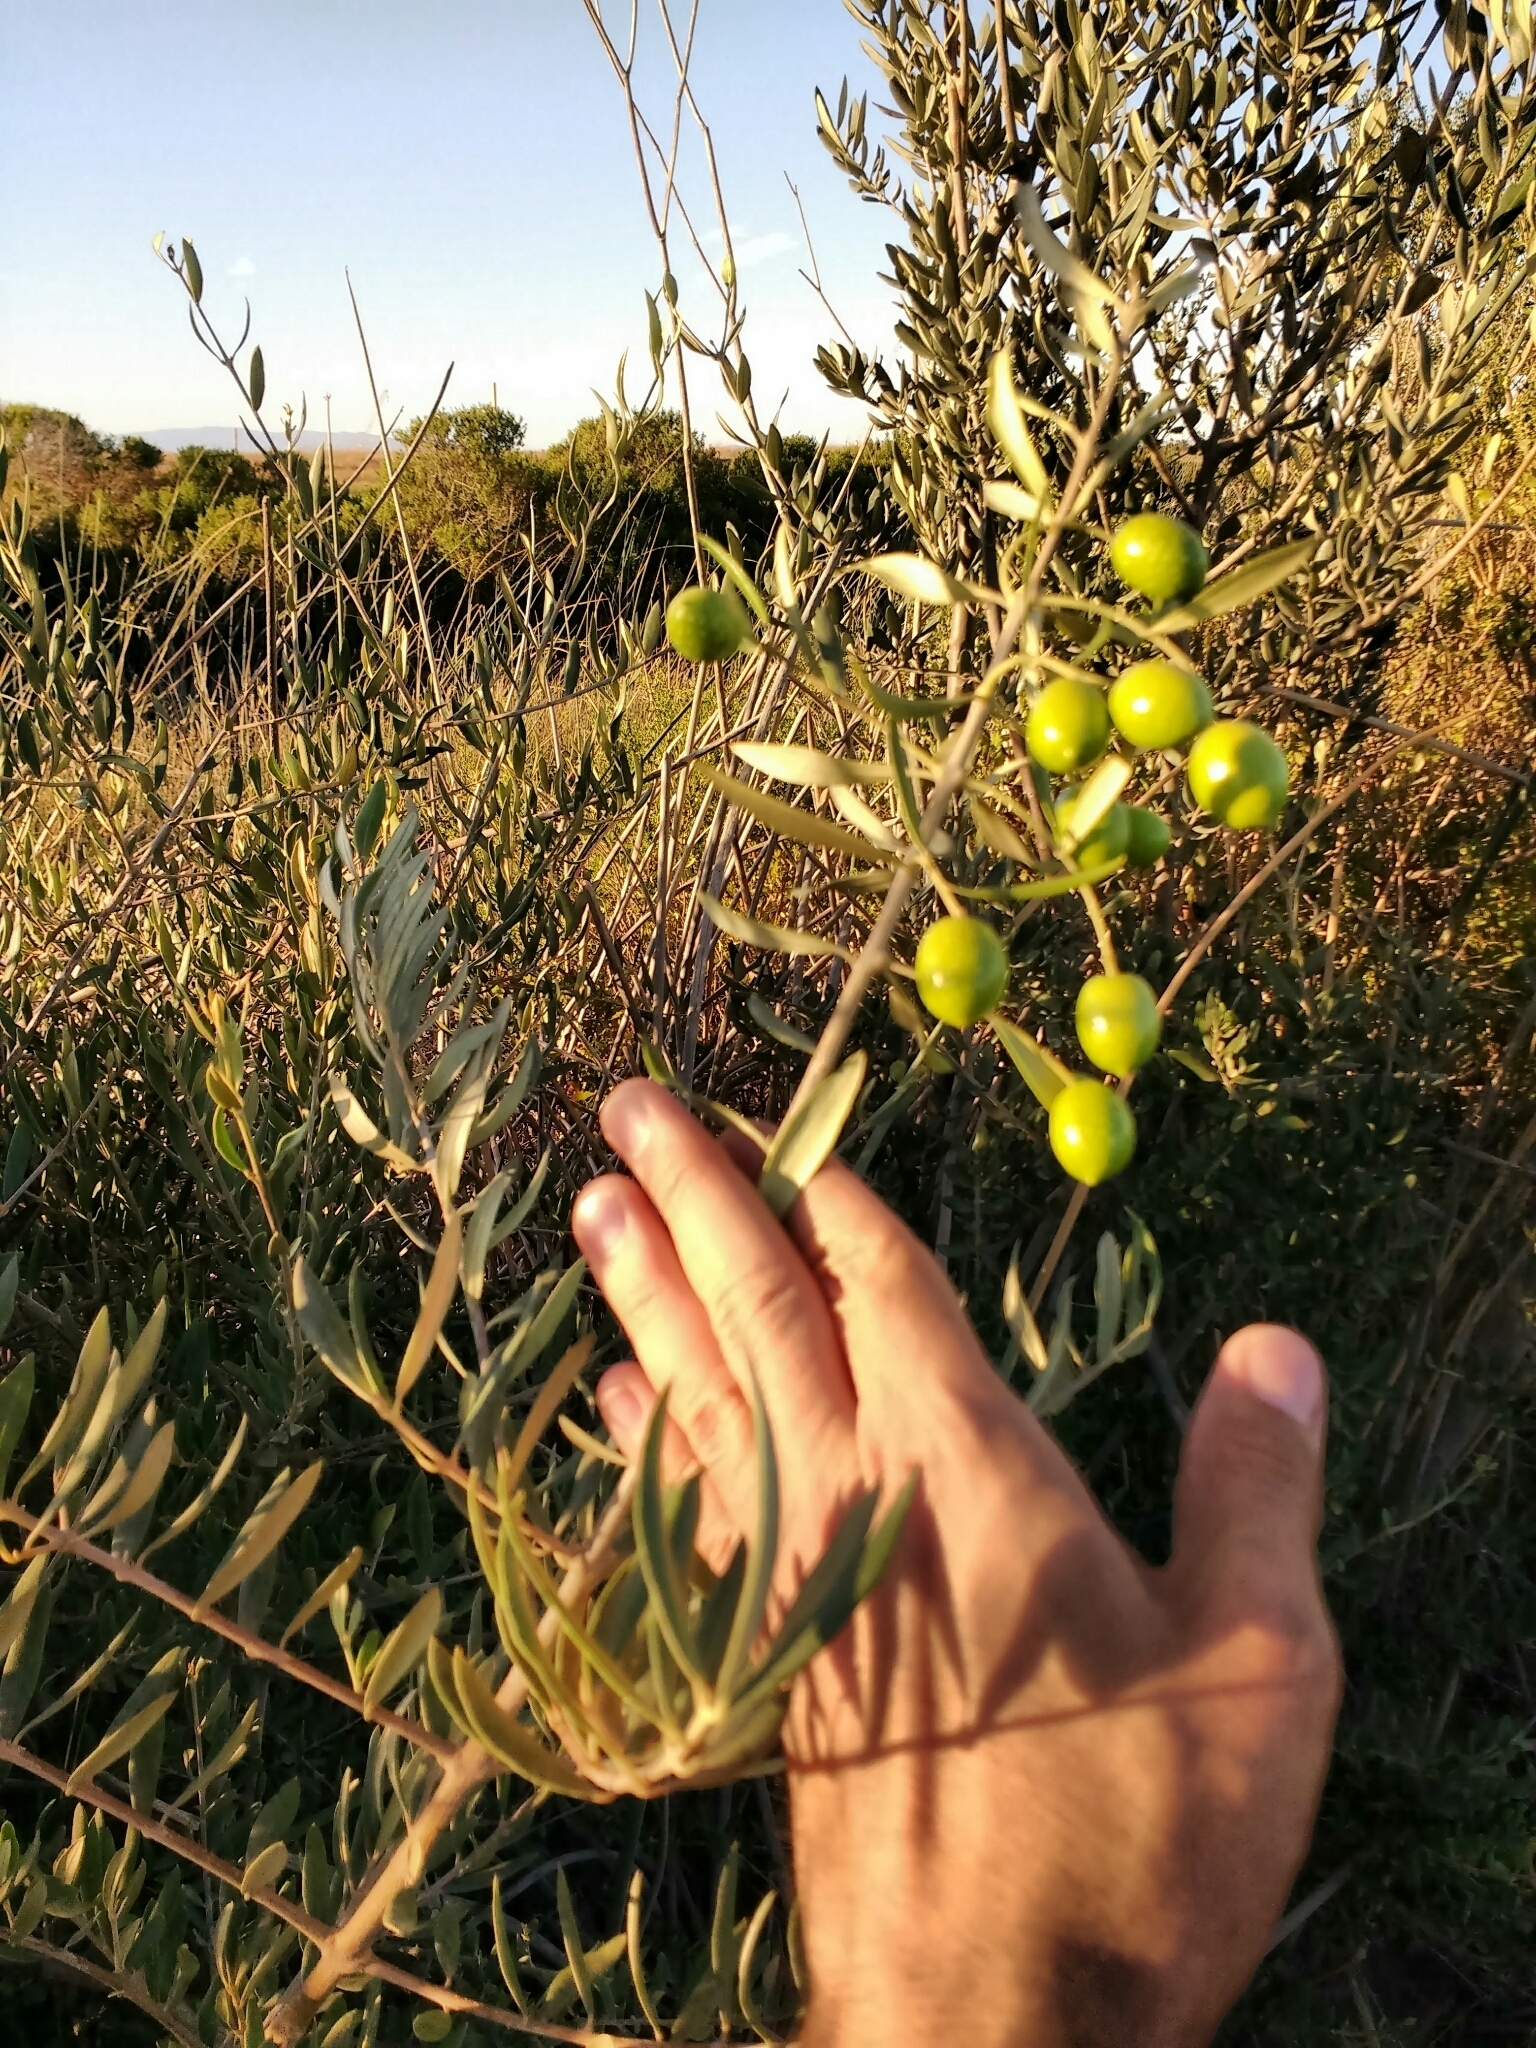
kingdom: Plantae
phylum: Tracheophyta
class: Magnoliopsida
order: Lamiales
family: Oleaceae
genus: Olea
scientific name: Olea europaea
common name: Olive
